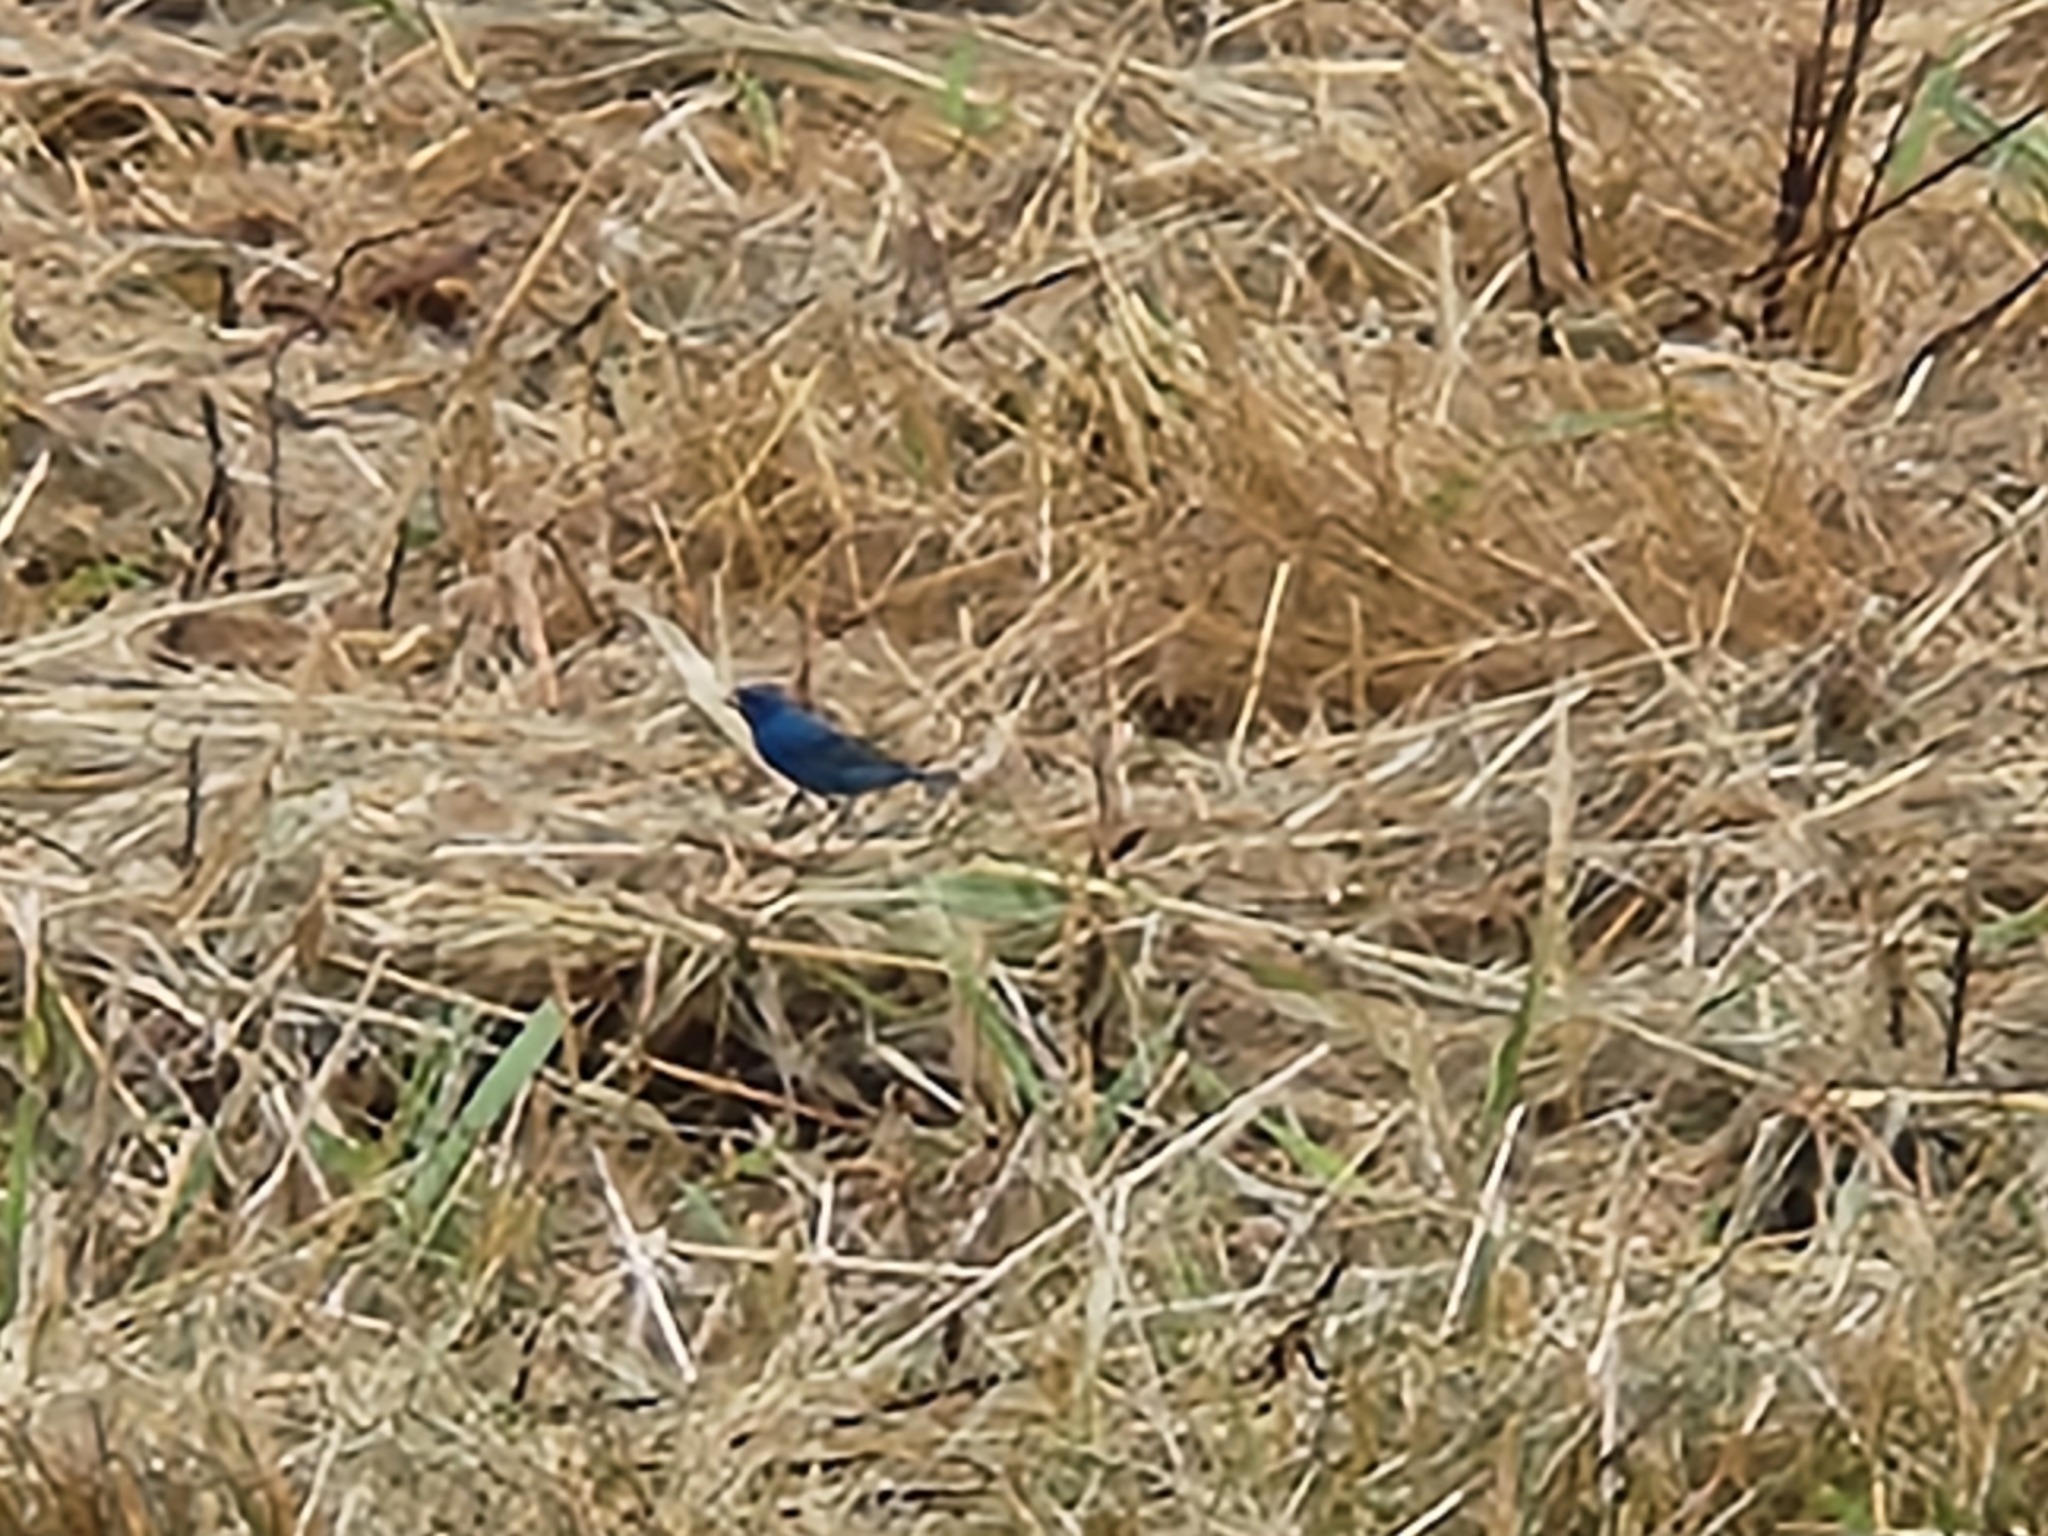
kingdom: Animalia
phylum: Chordata
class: Aves
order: Passeriformes
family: Cardinalidae
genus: Passerina
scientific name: Passerina cyanea
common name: Indigo bunting
